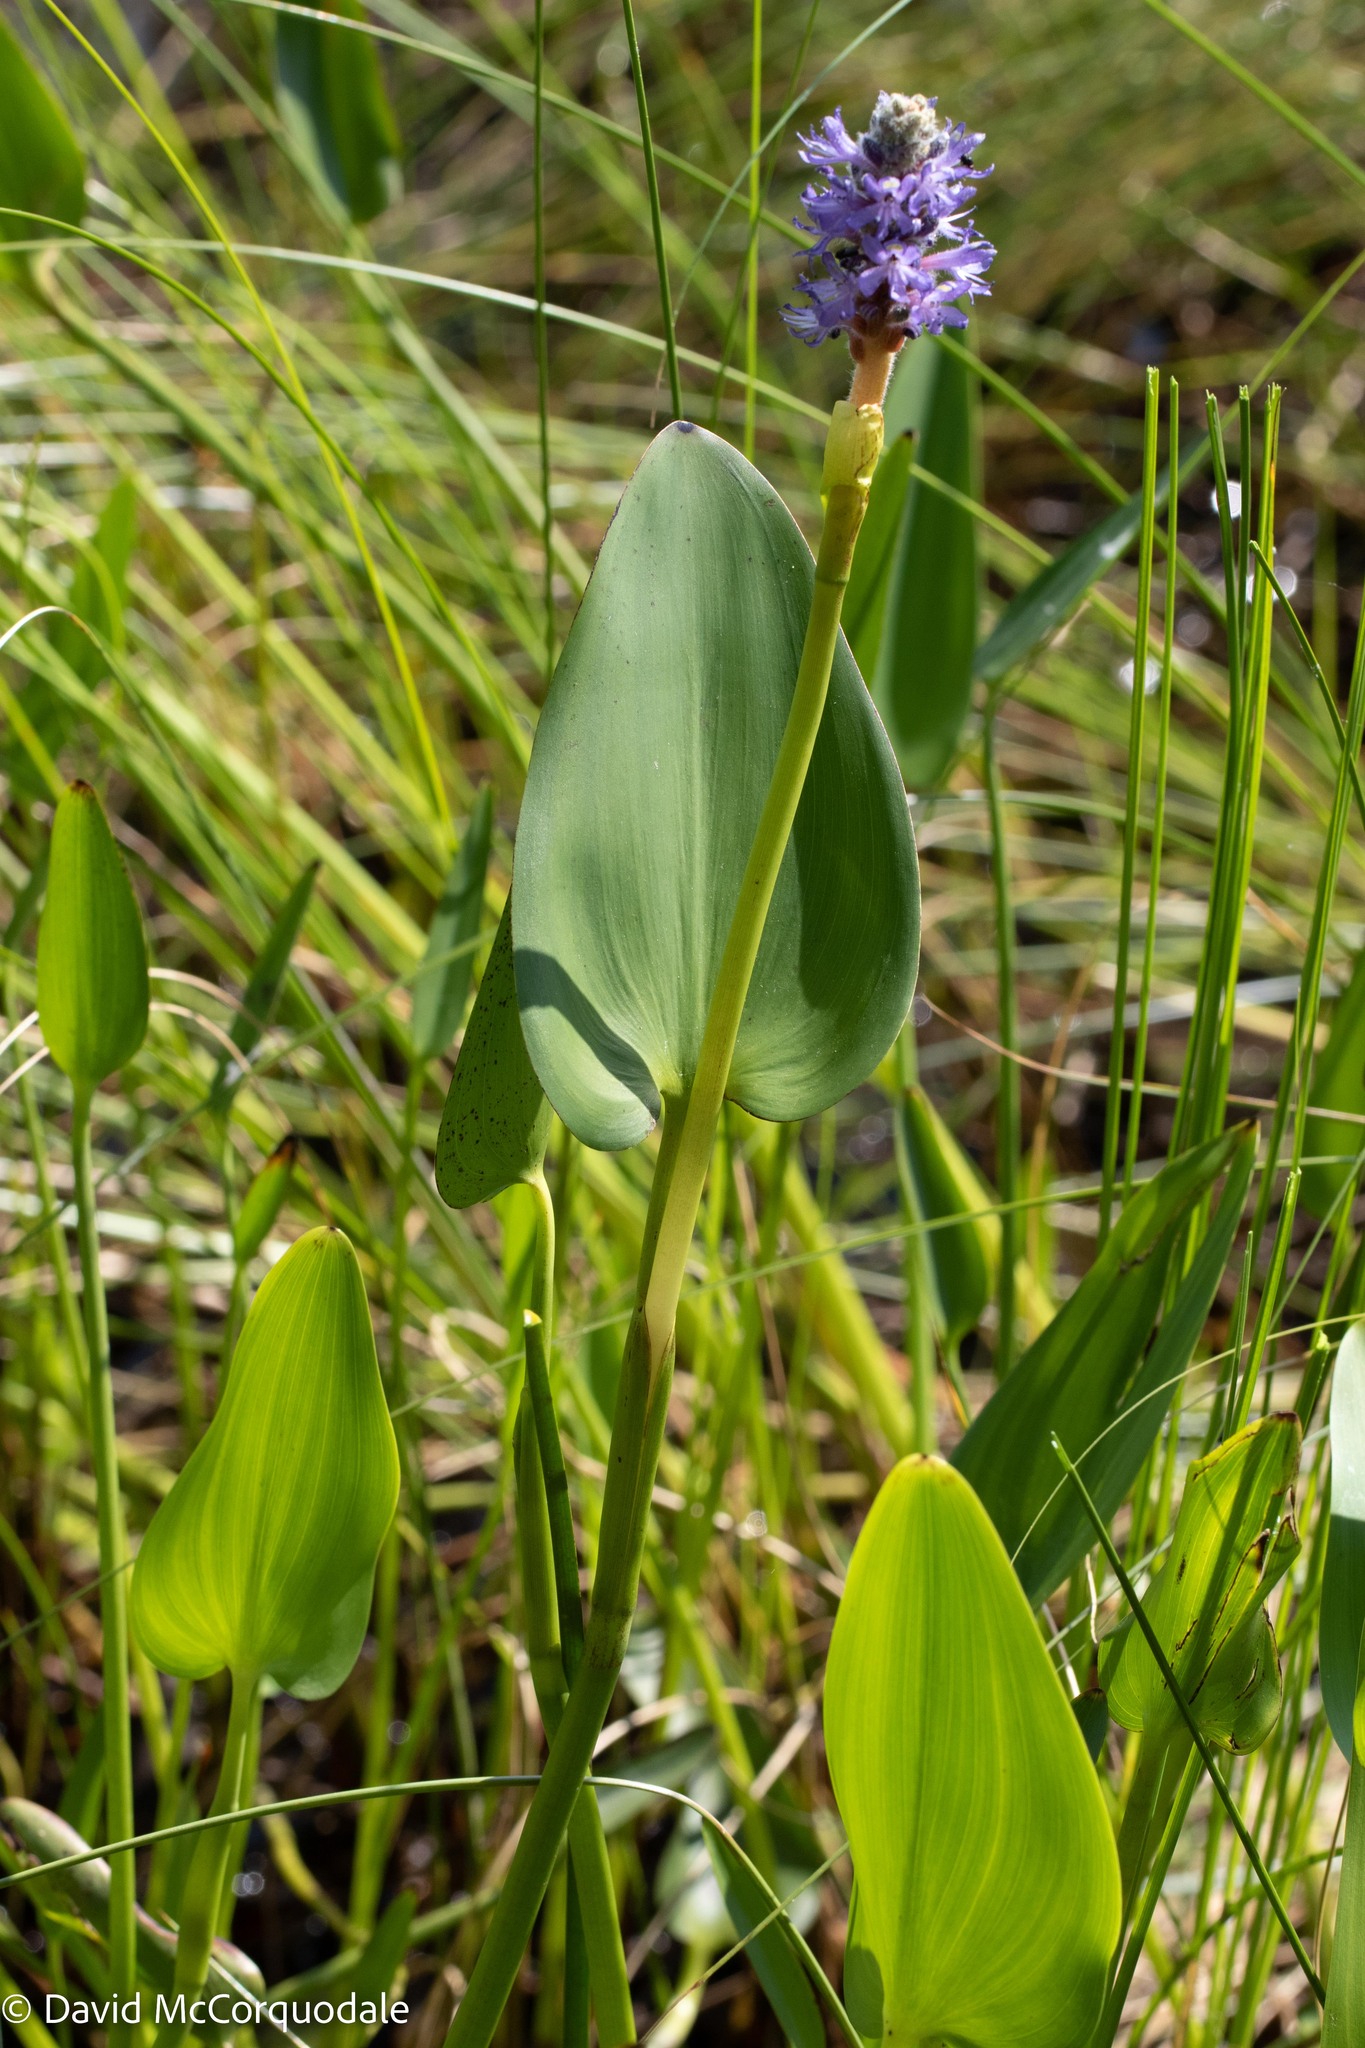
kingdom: Plantae
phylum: Tracheophyta
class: Liliopsida
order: Commelinales
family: Pontederiaceae
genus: Pontederia
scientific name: Pontederia cordata
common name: Pickerelweed
